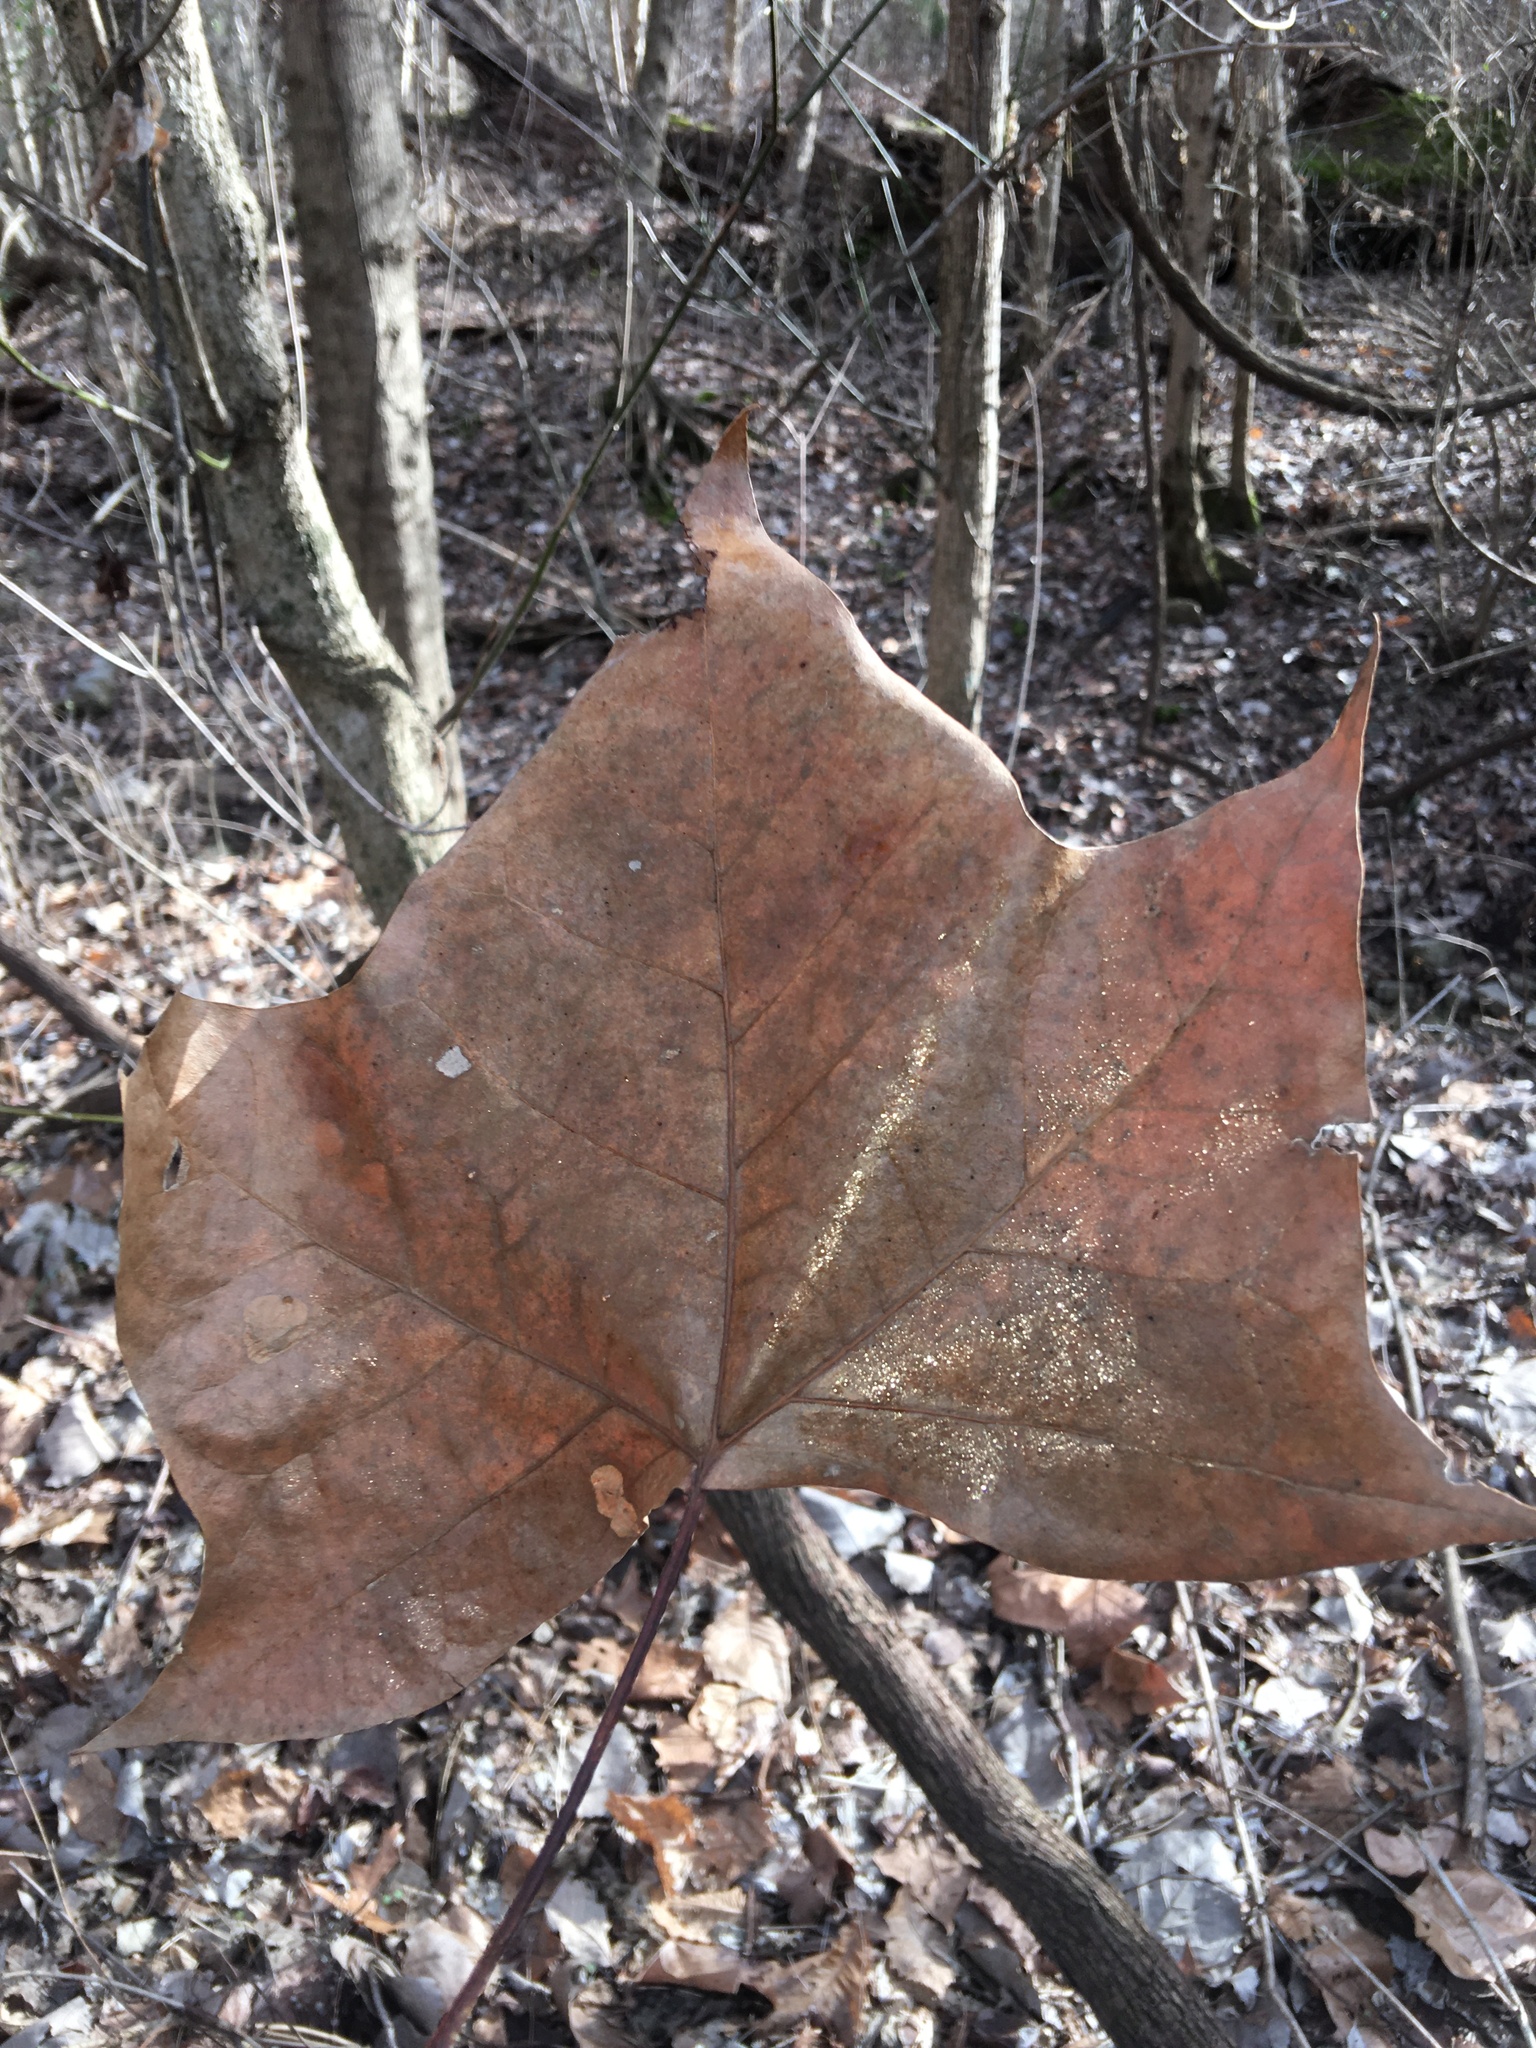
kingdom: Plantae
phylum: Tracheophyta
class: Magnoliopsida
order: Proteales
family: Platanaceae
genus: Platanus
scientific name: Platanus occidentalis
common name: American sycamore
